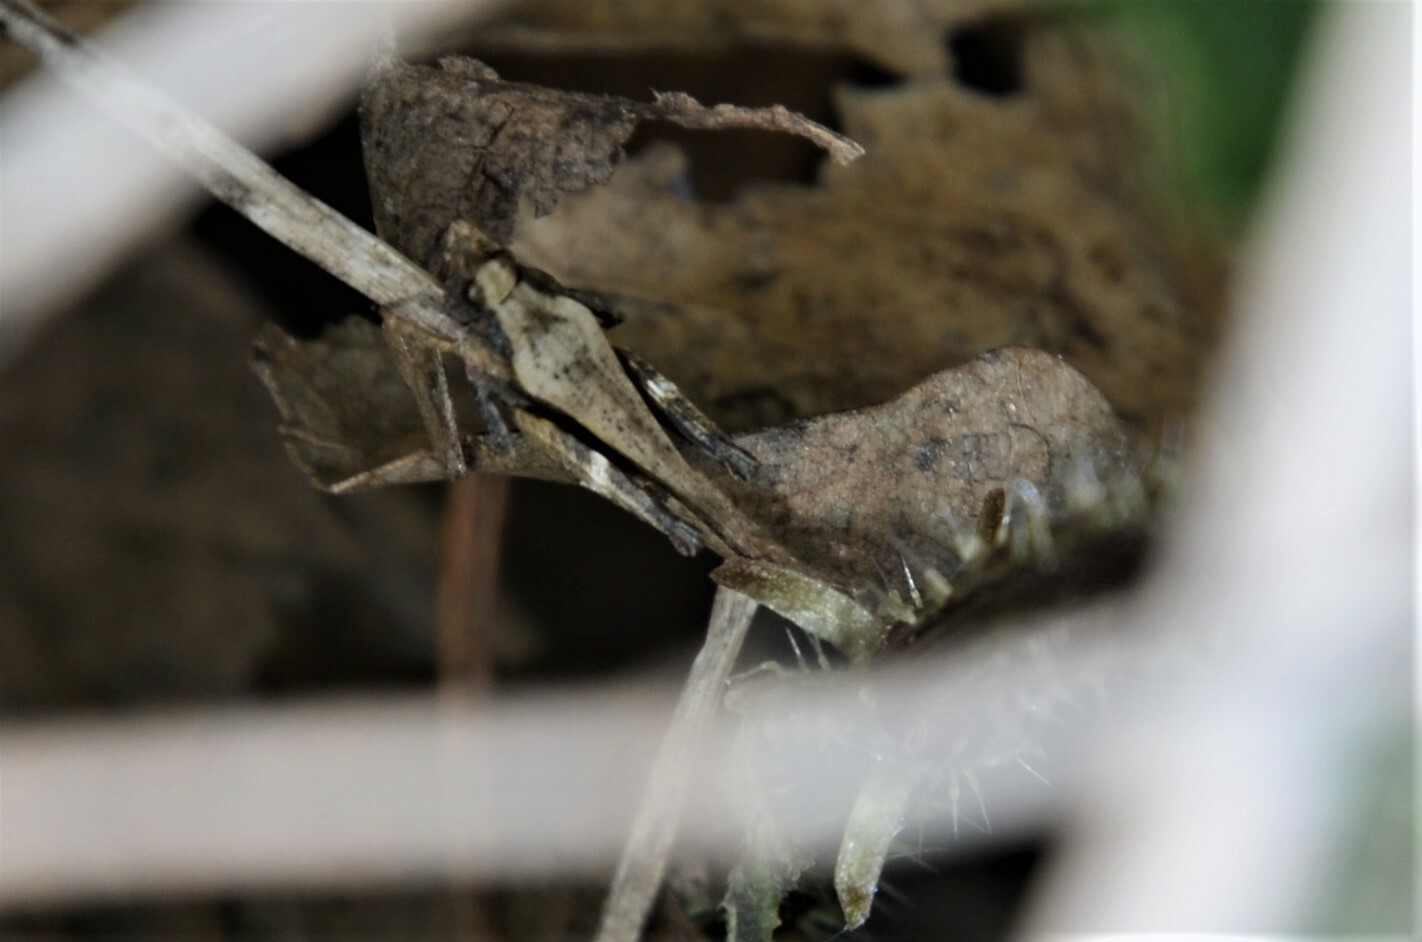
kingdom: Animalia
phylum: Arthropoda
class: Insecta
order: Orthoptera
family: Tetrigidae
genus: Tetrix
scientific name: Tetrix subulata
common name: Slender ground-hopper
